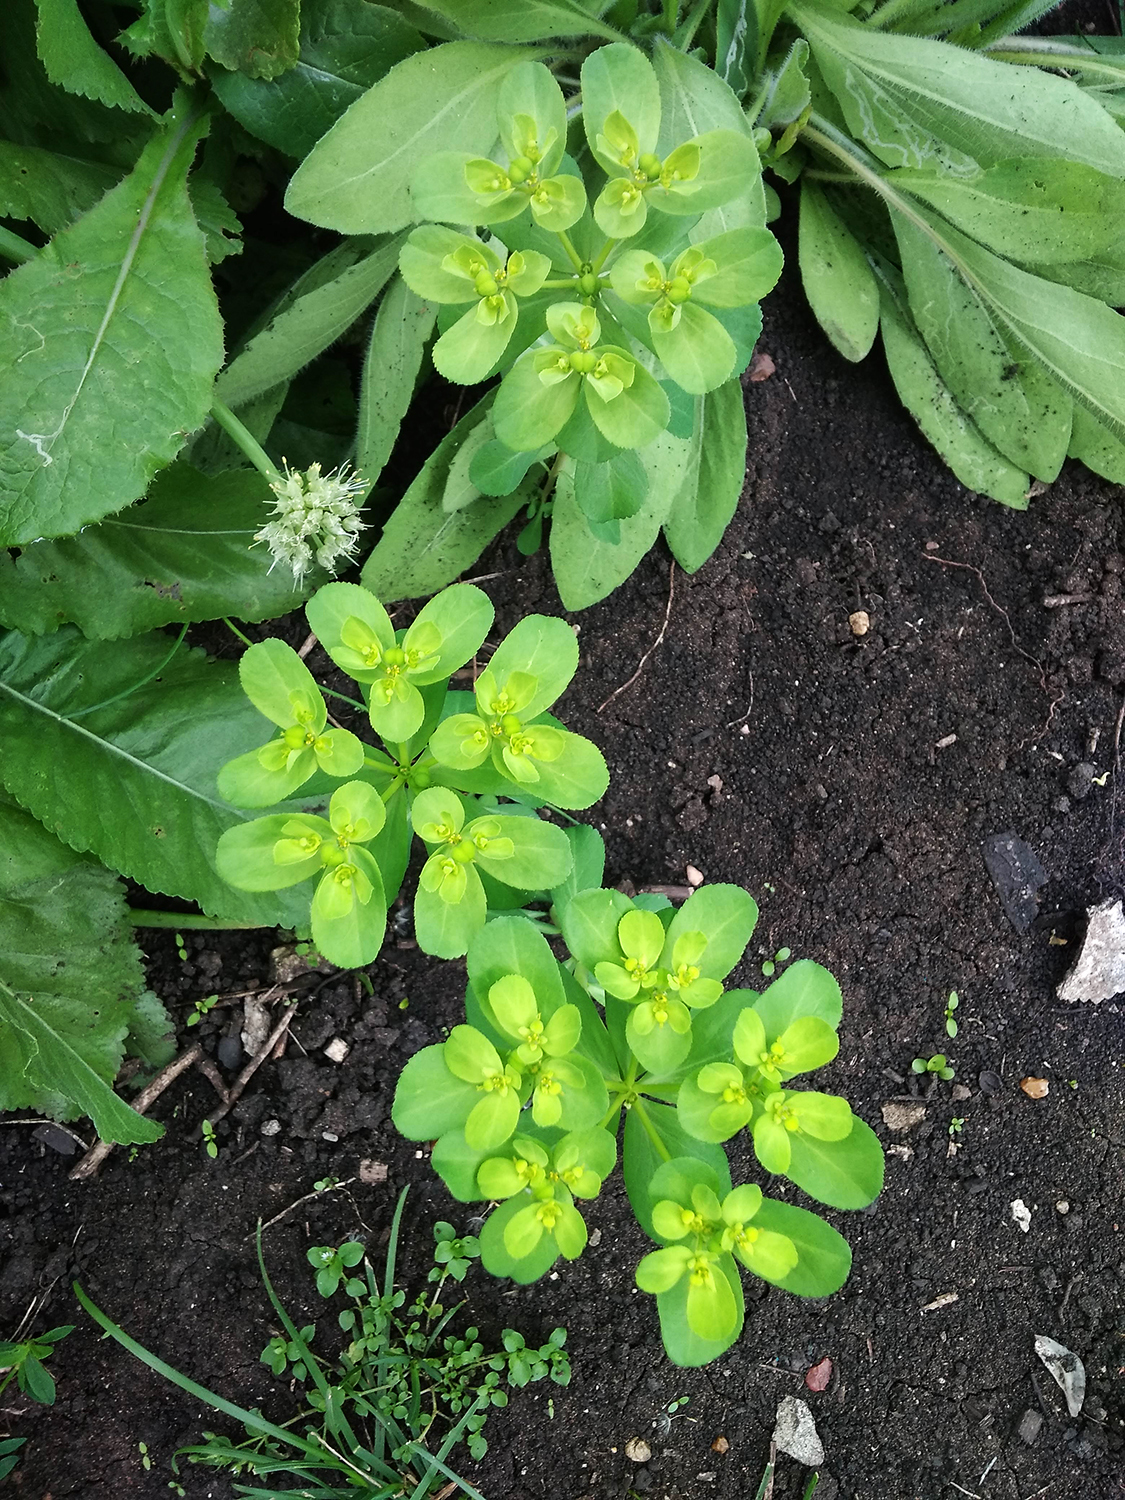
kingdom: Plantae
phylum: Tracheophyta
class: Magnoliopsida
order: Malpighiales
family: Euphorbiaceae
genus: Euphorbia
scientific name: Euphorbia helioscopia
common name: Sun spurge
